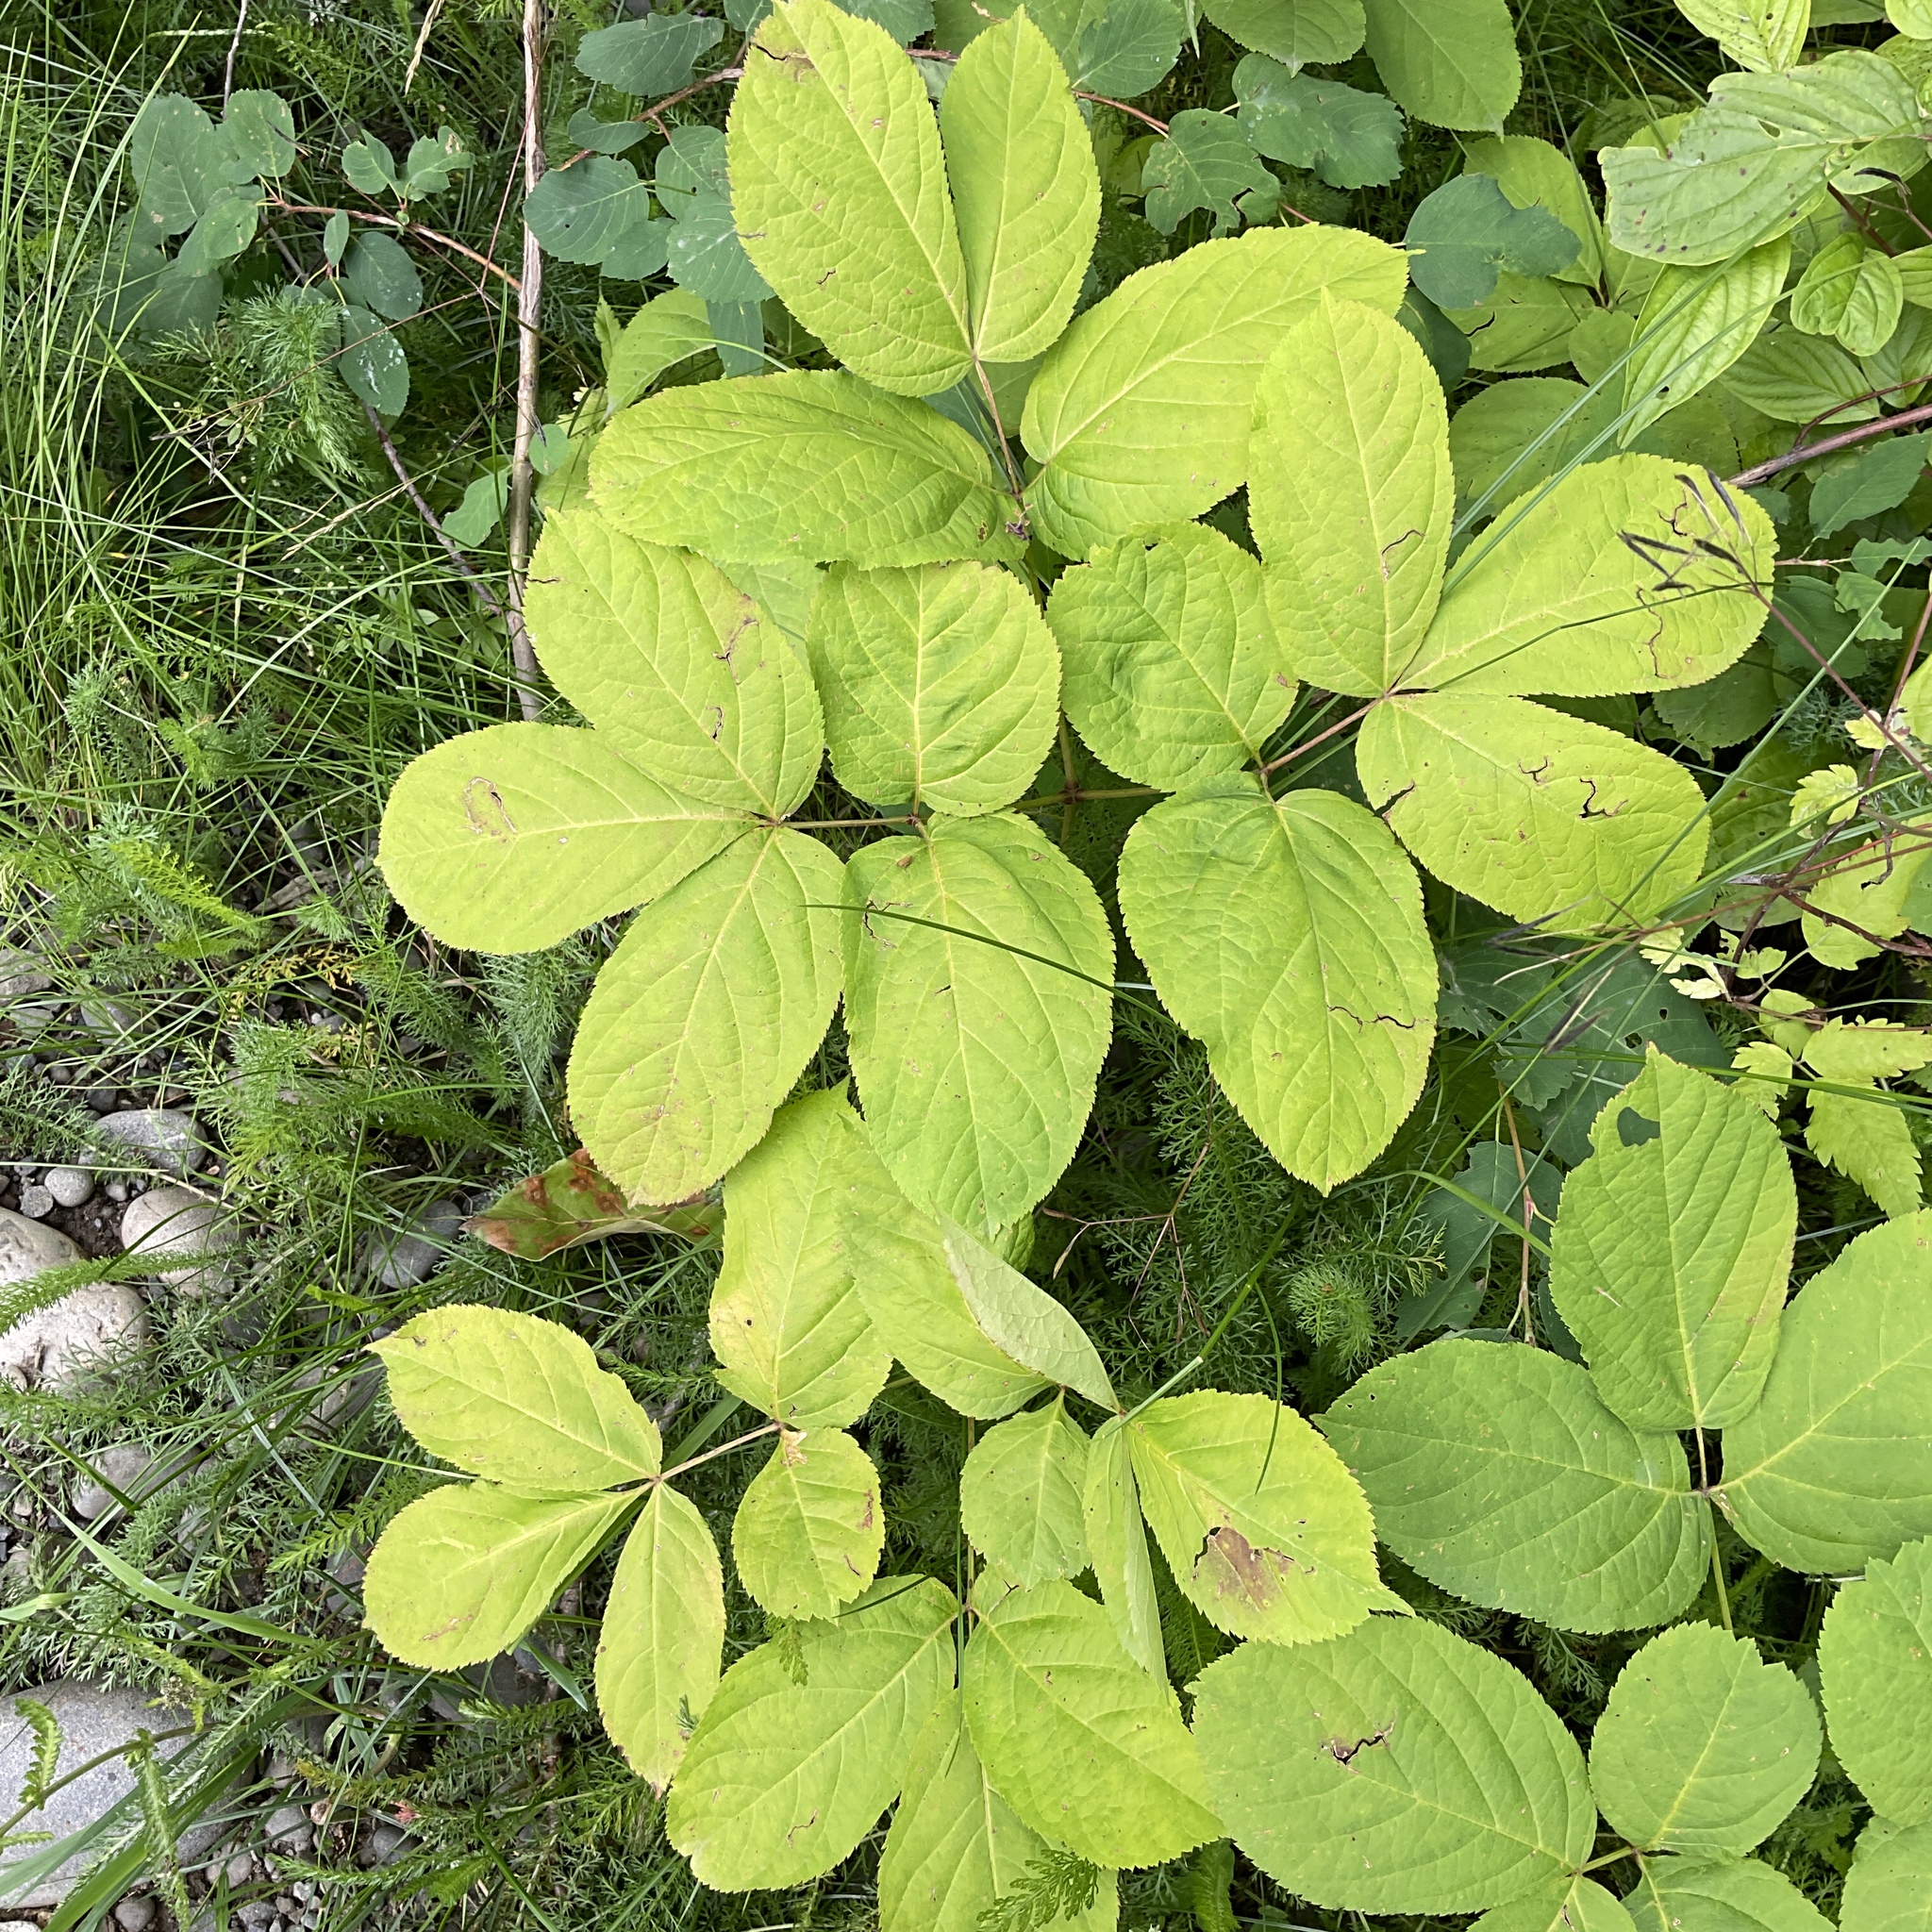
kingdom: Plantae
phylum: Tracheophyta
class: Magnoliopsida
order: Apiales
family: Araliaceae
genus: Aralia
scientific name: Aralia nudicaulis
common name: Wild sarsaparilla
